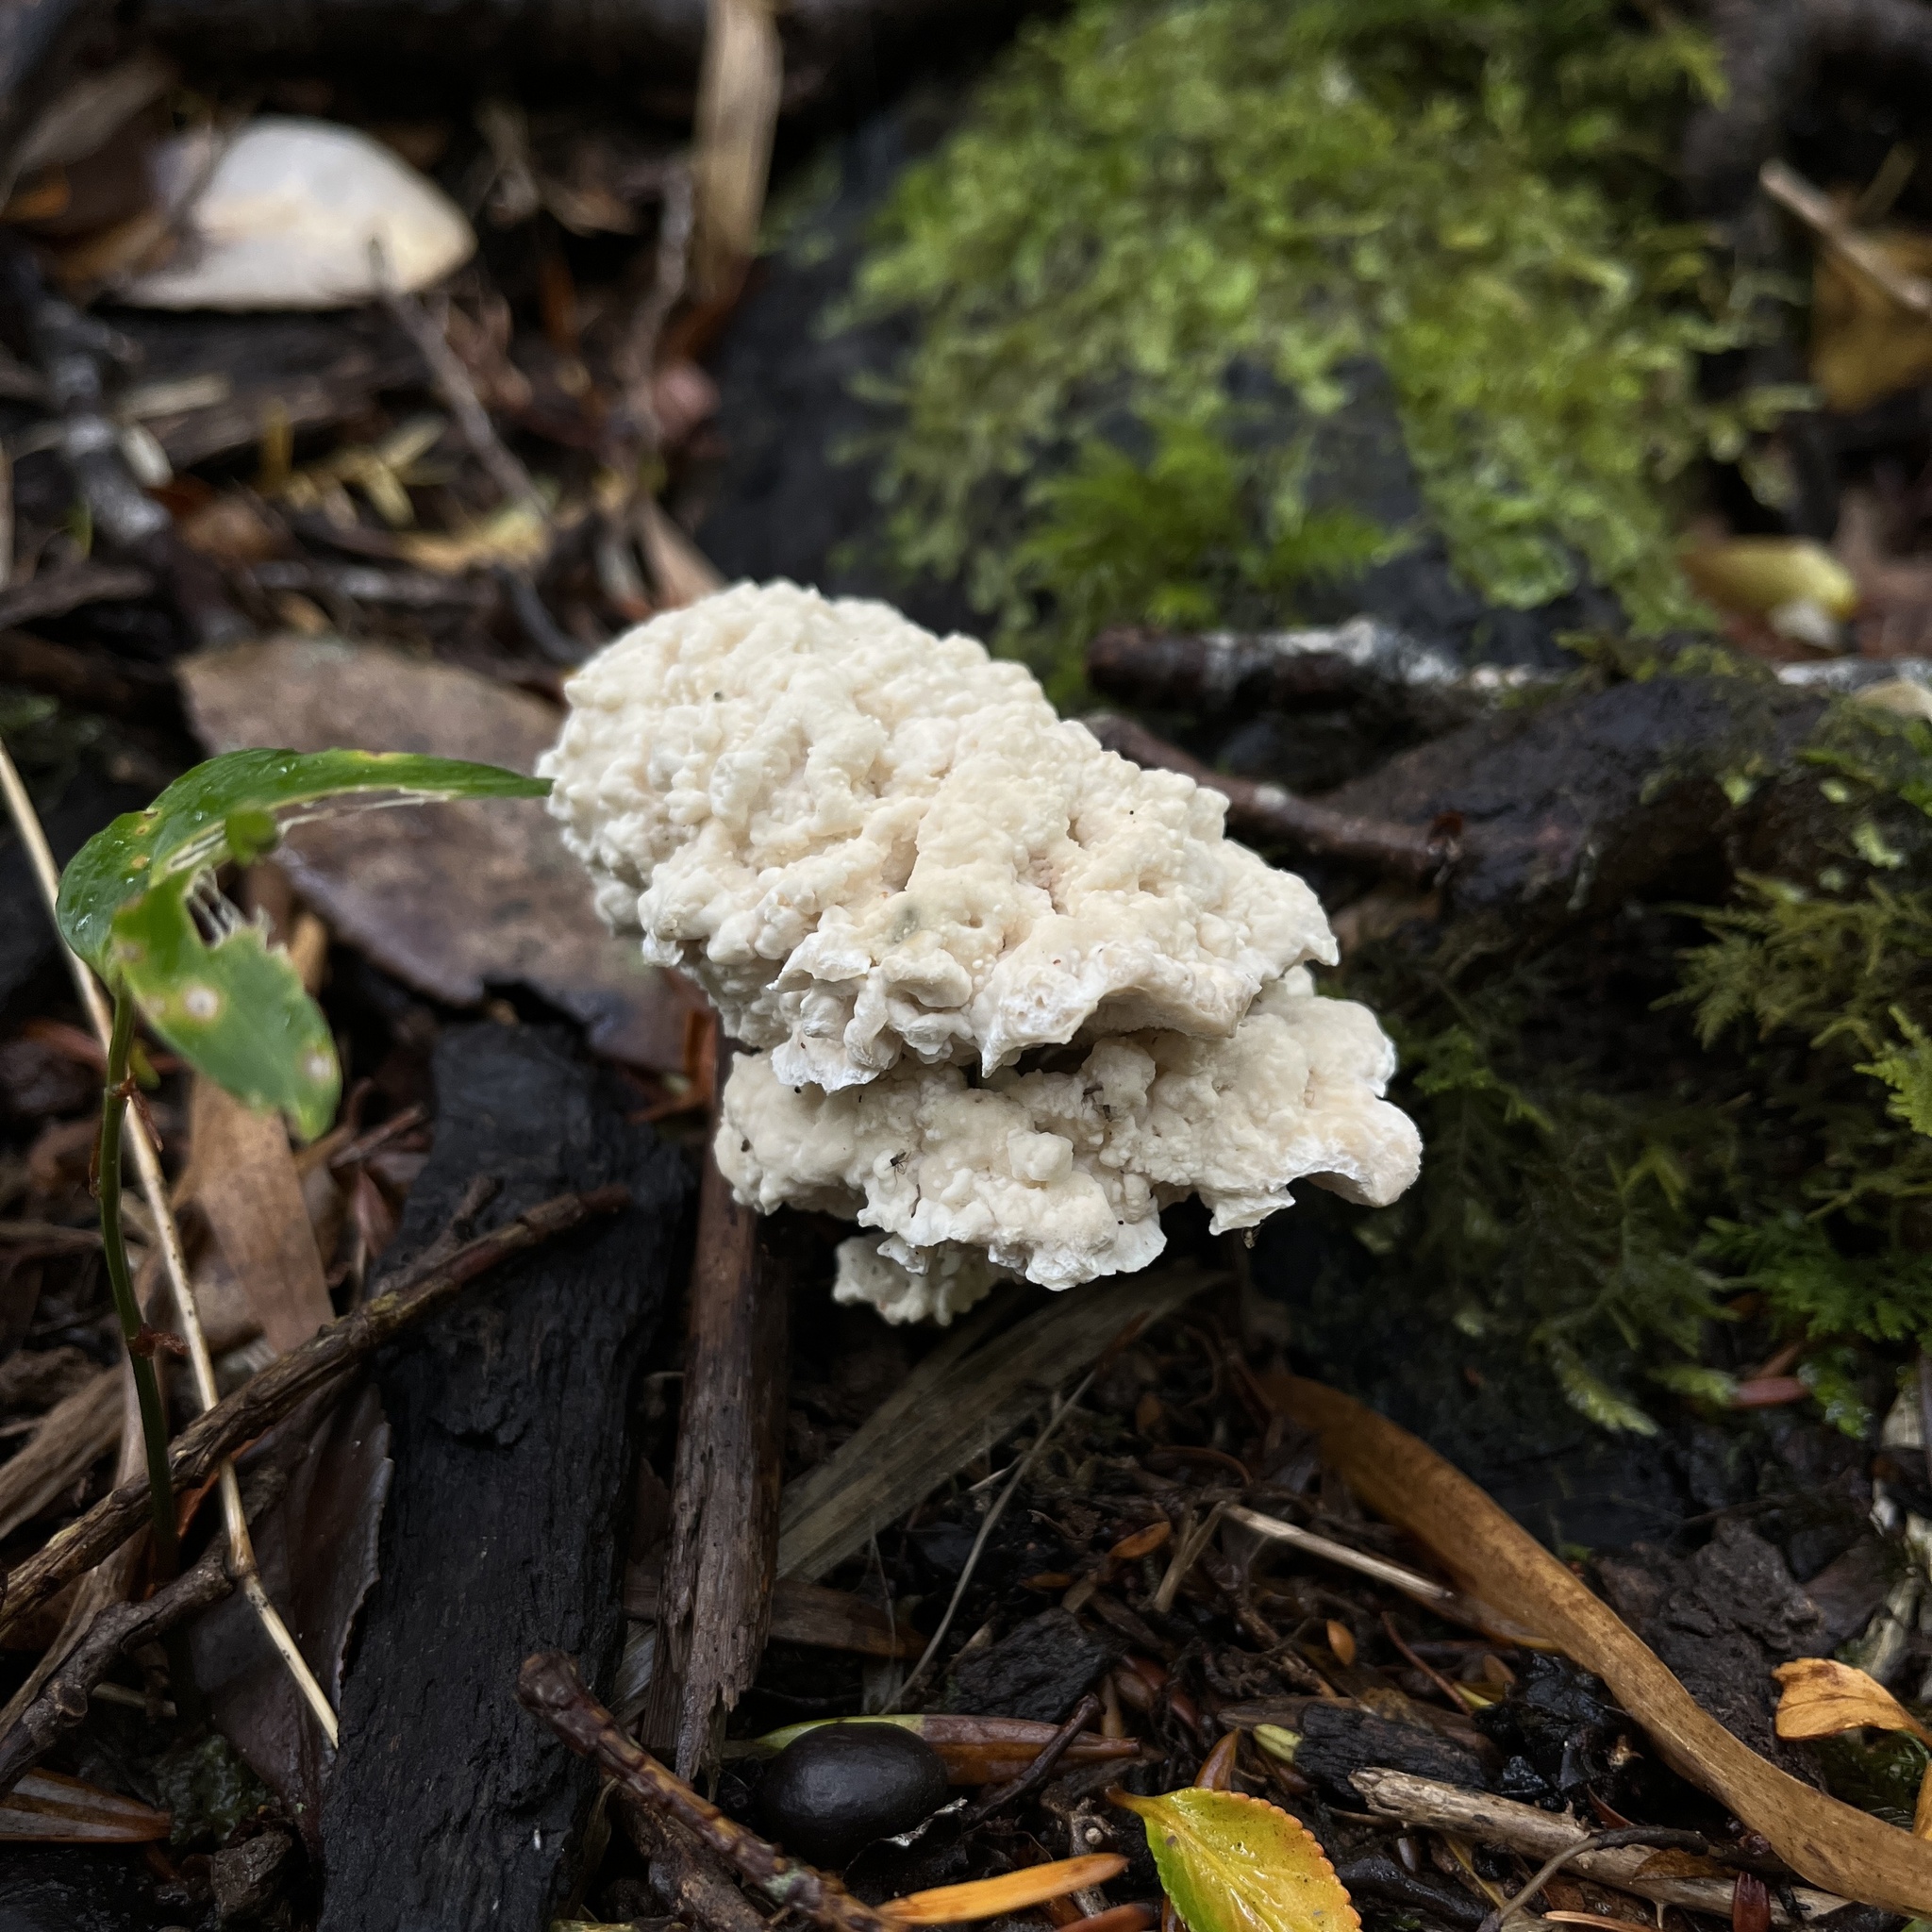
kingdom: Fungi
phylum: Basidiomycota
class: Agaricomycetes
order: Polyporales
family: Dacryobolaceae
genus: Postia
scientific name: Postia punctata
